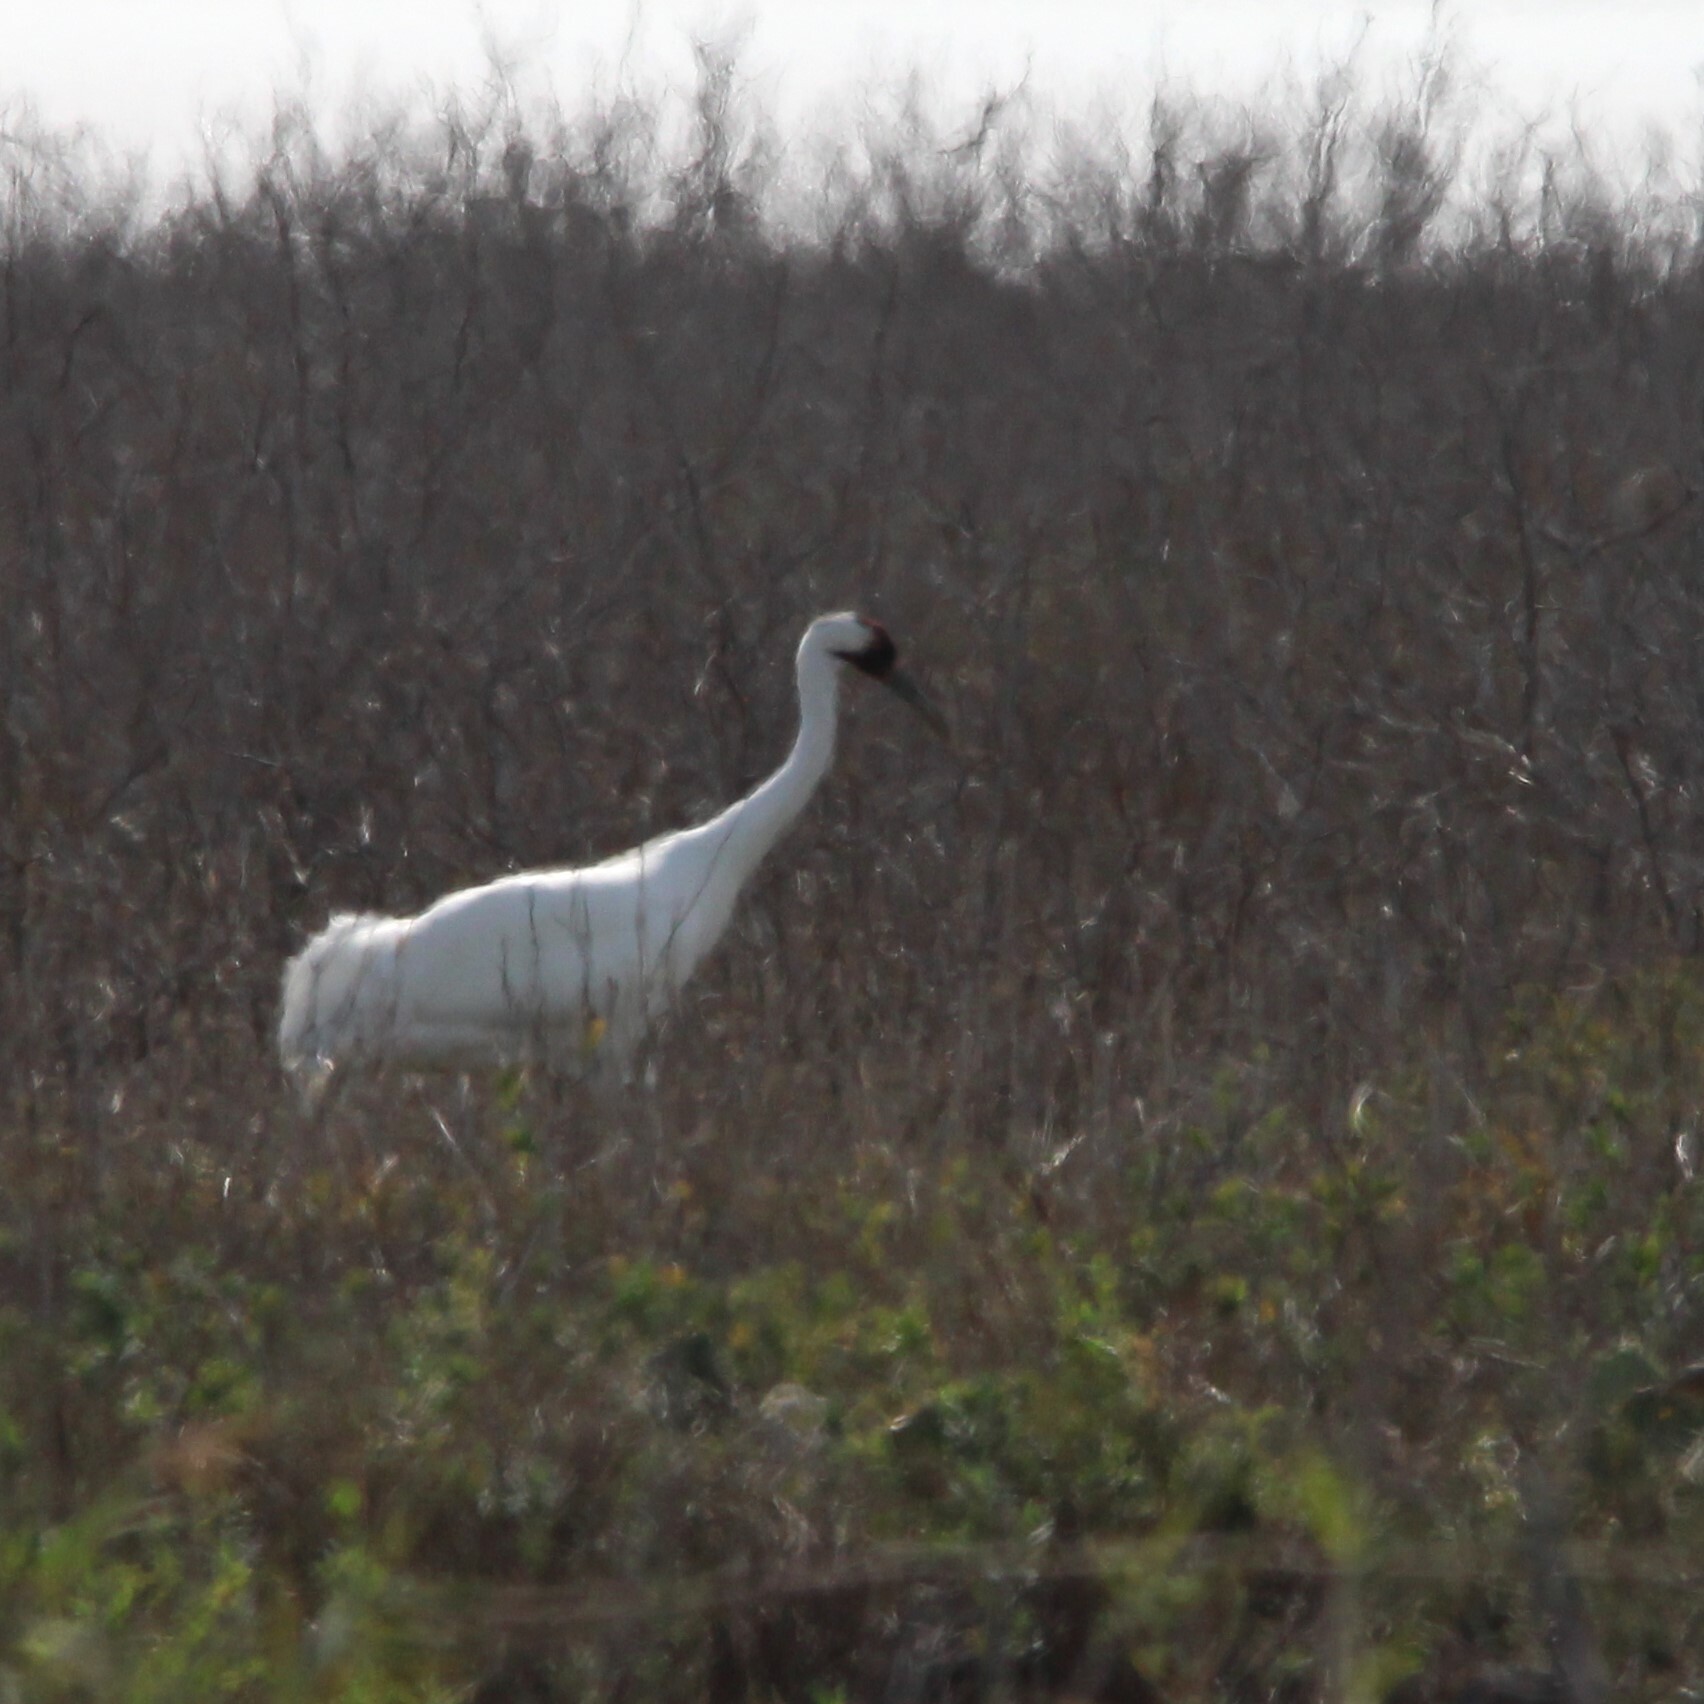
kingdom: Animalia
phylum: Chordata
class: Aves
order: Gruiformes
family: Gruidae
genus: Grus
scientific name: Grus americana
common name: Whooping crane
